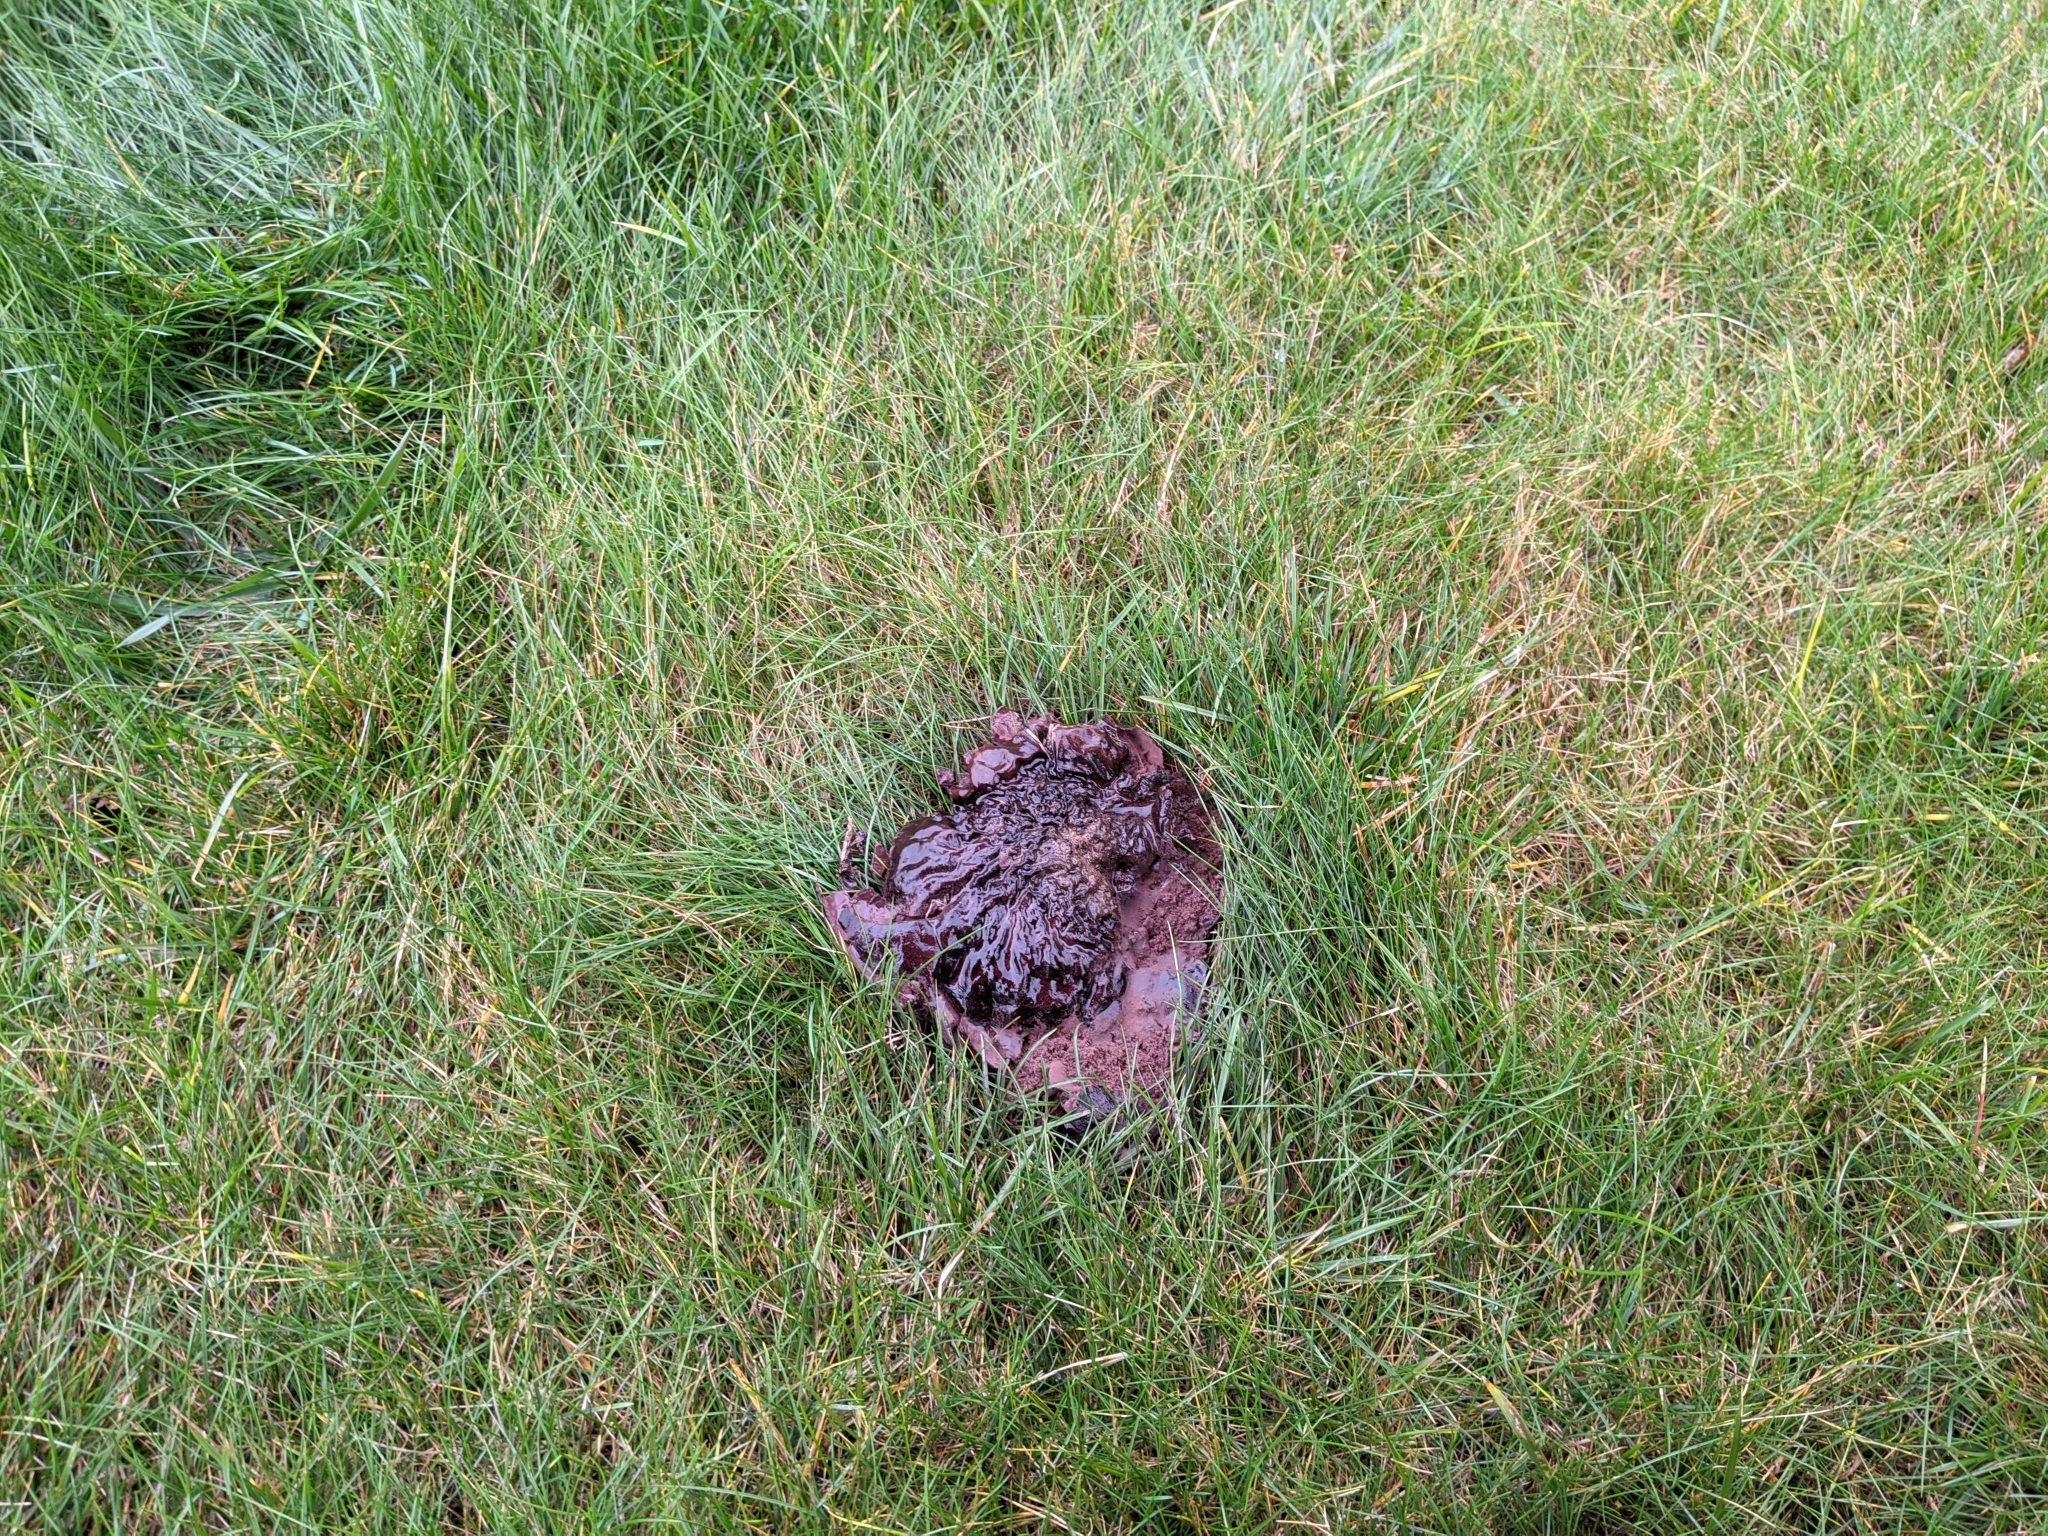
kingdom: Fungi
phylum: Basidiomycota
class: Agaricomycetes
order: Agaricales
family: Lycoperdaceae
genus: Calvatia
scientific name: Calvatia cyathiformis
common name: Purple-spored puffball
